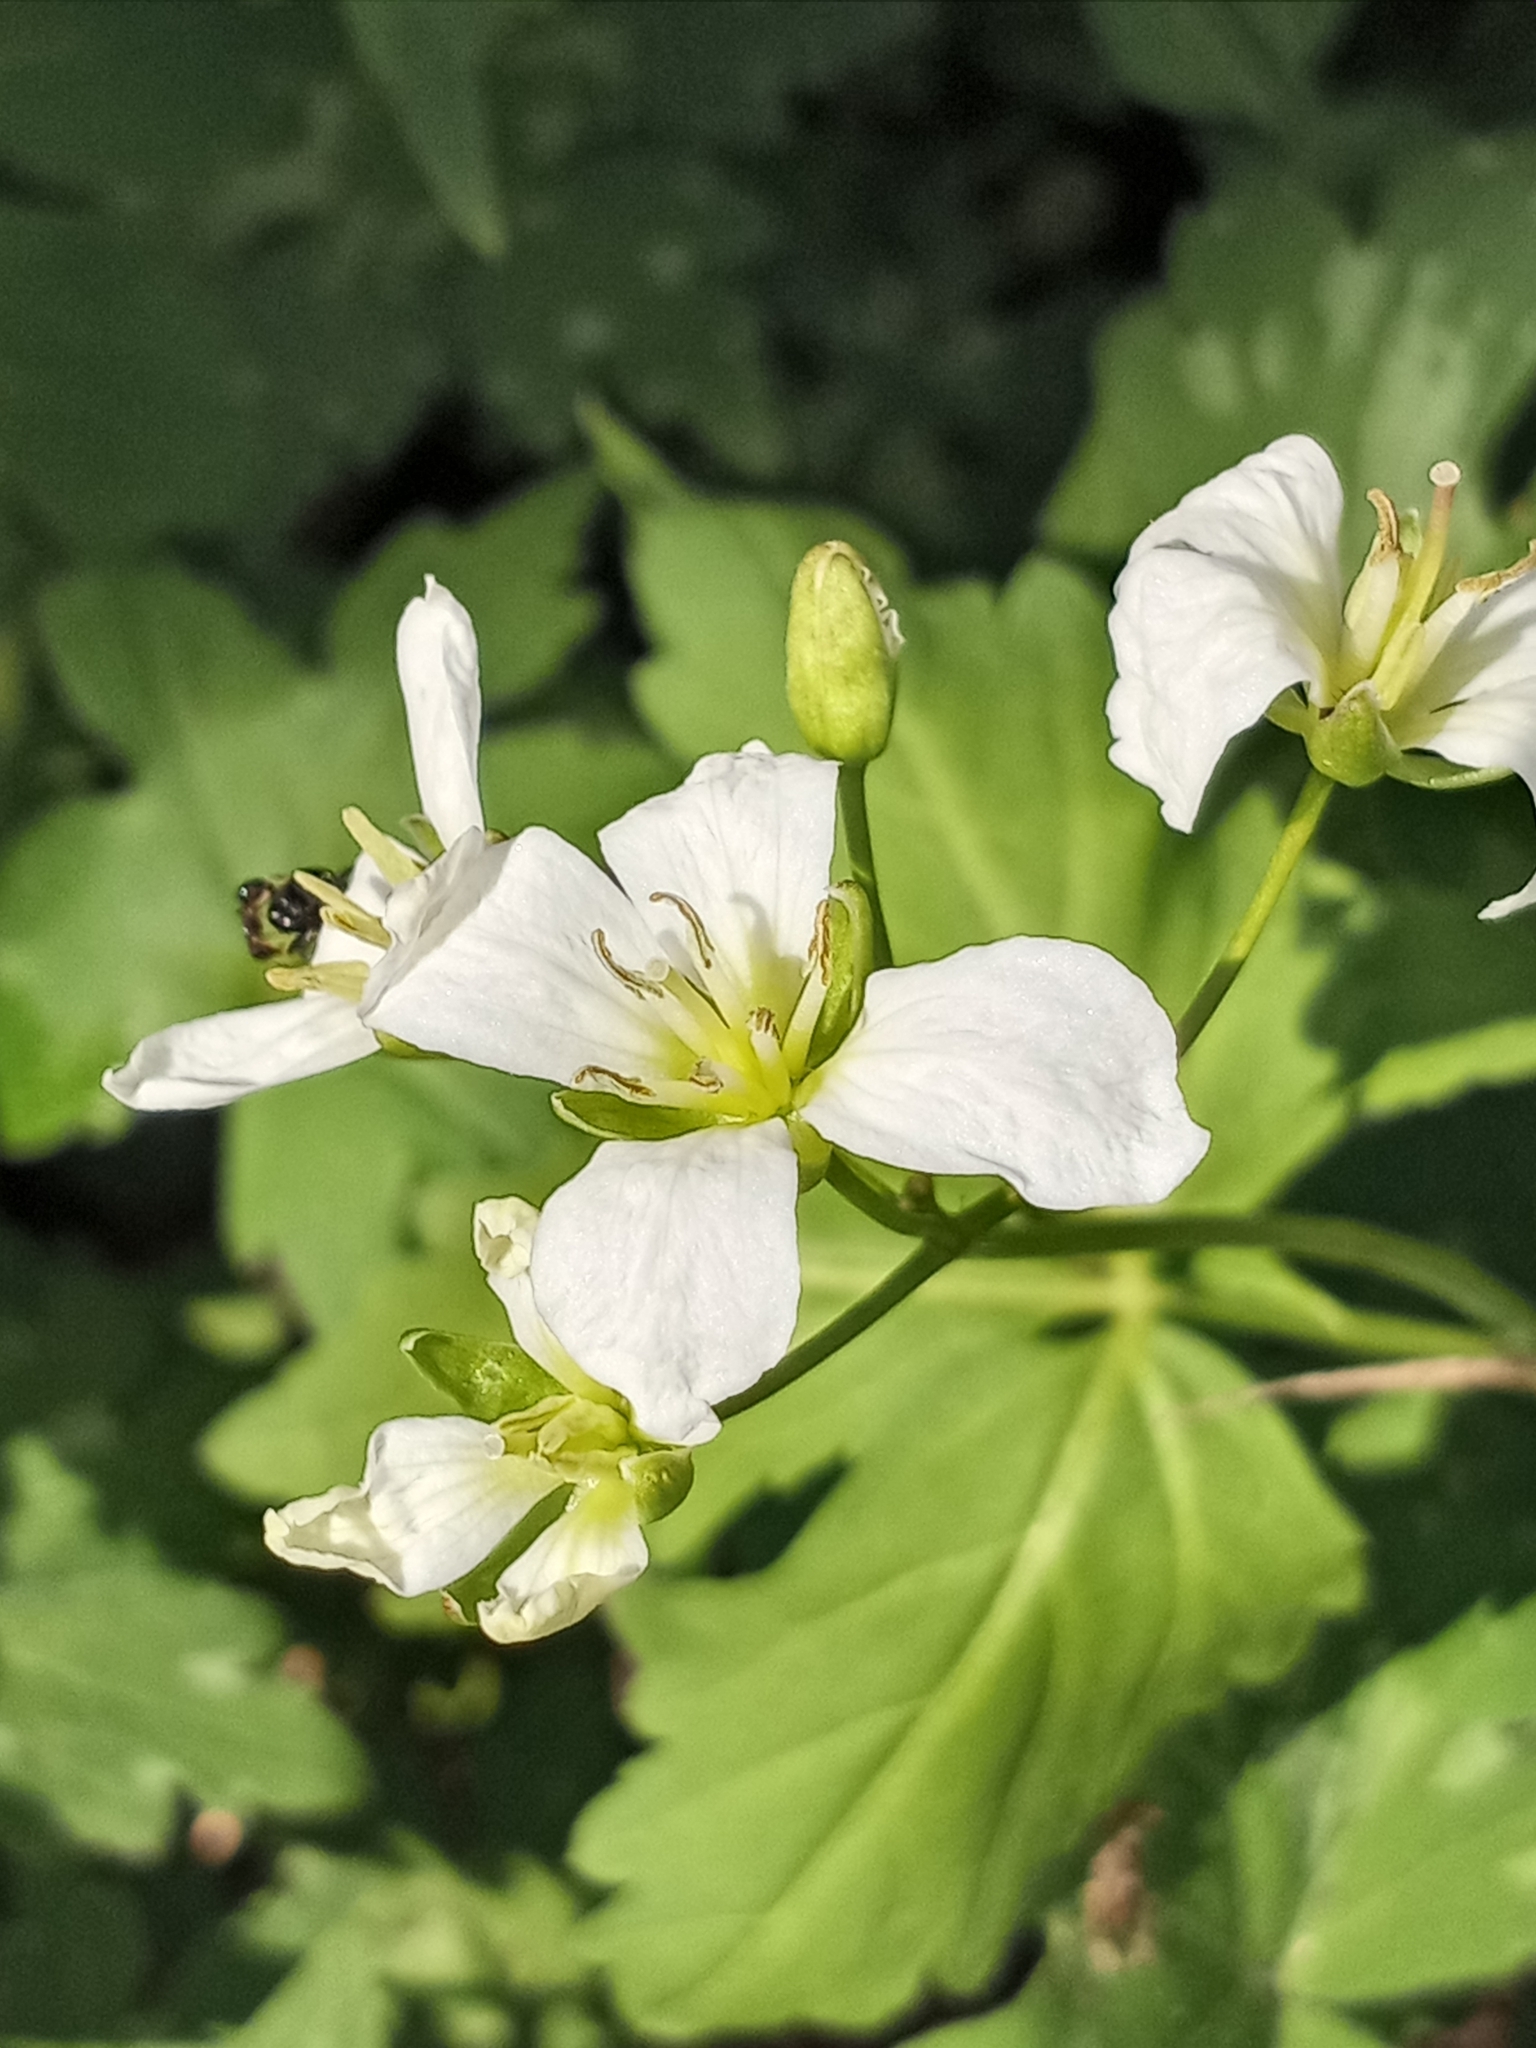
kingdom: Plantae
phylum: Tracheophyta
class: Magnoliopsida
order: Brassicales
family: Brassicaceae
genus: Cardamine
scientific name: Cardamine diphylla
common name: Broad-leaved toothwort
